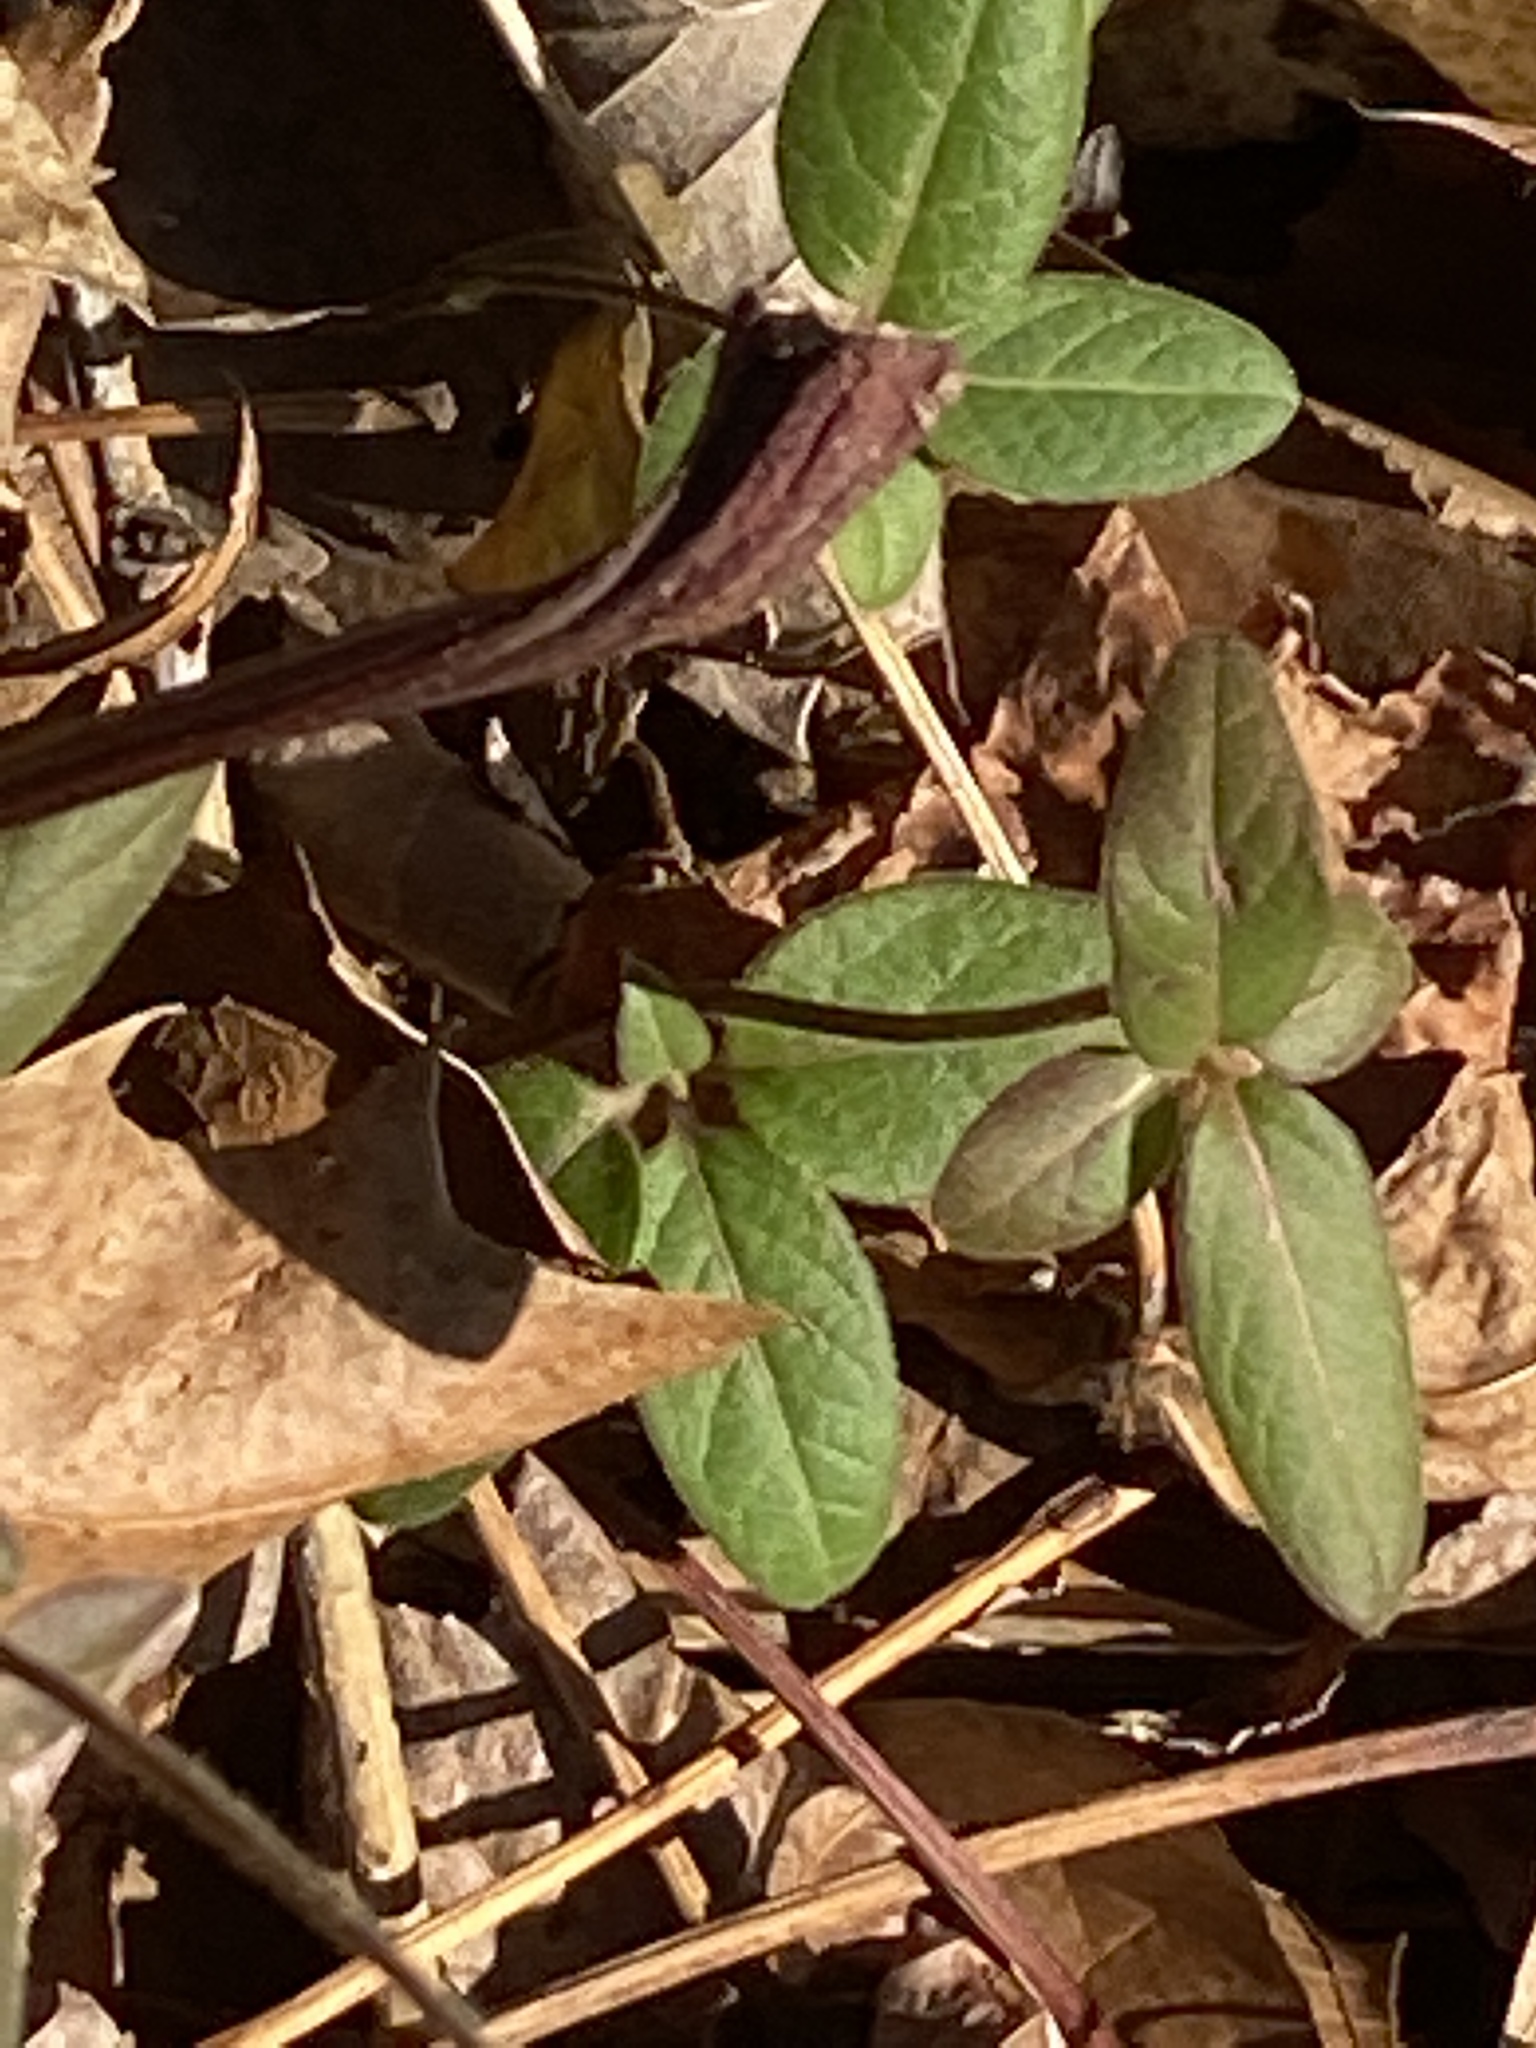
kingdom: Plantae
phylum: Tracheophyta
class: Magnoliopsida
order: Dipsacales
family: Caprifoliaceae
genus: Lonicera
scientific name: Lonicera japonica
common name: Japanese honeysuckle
